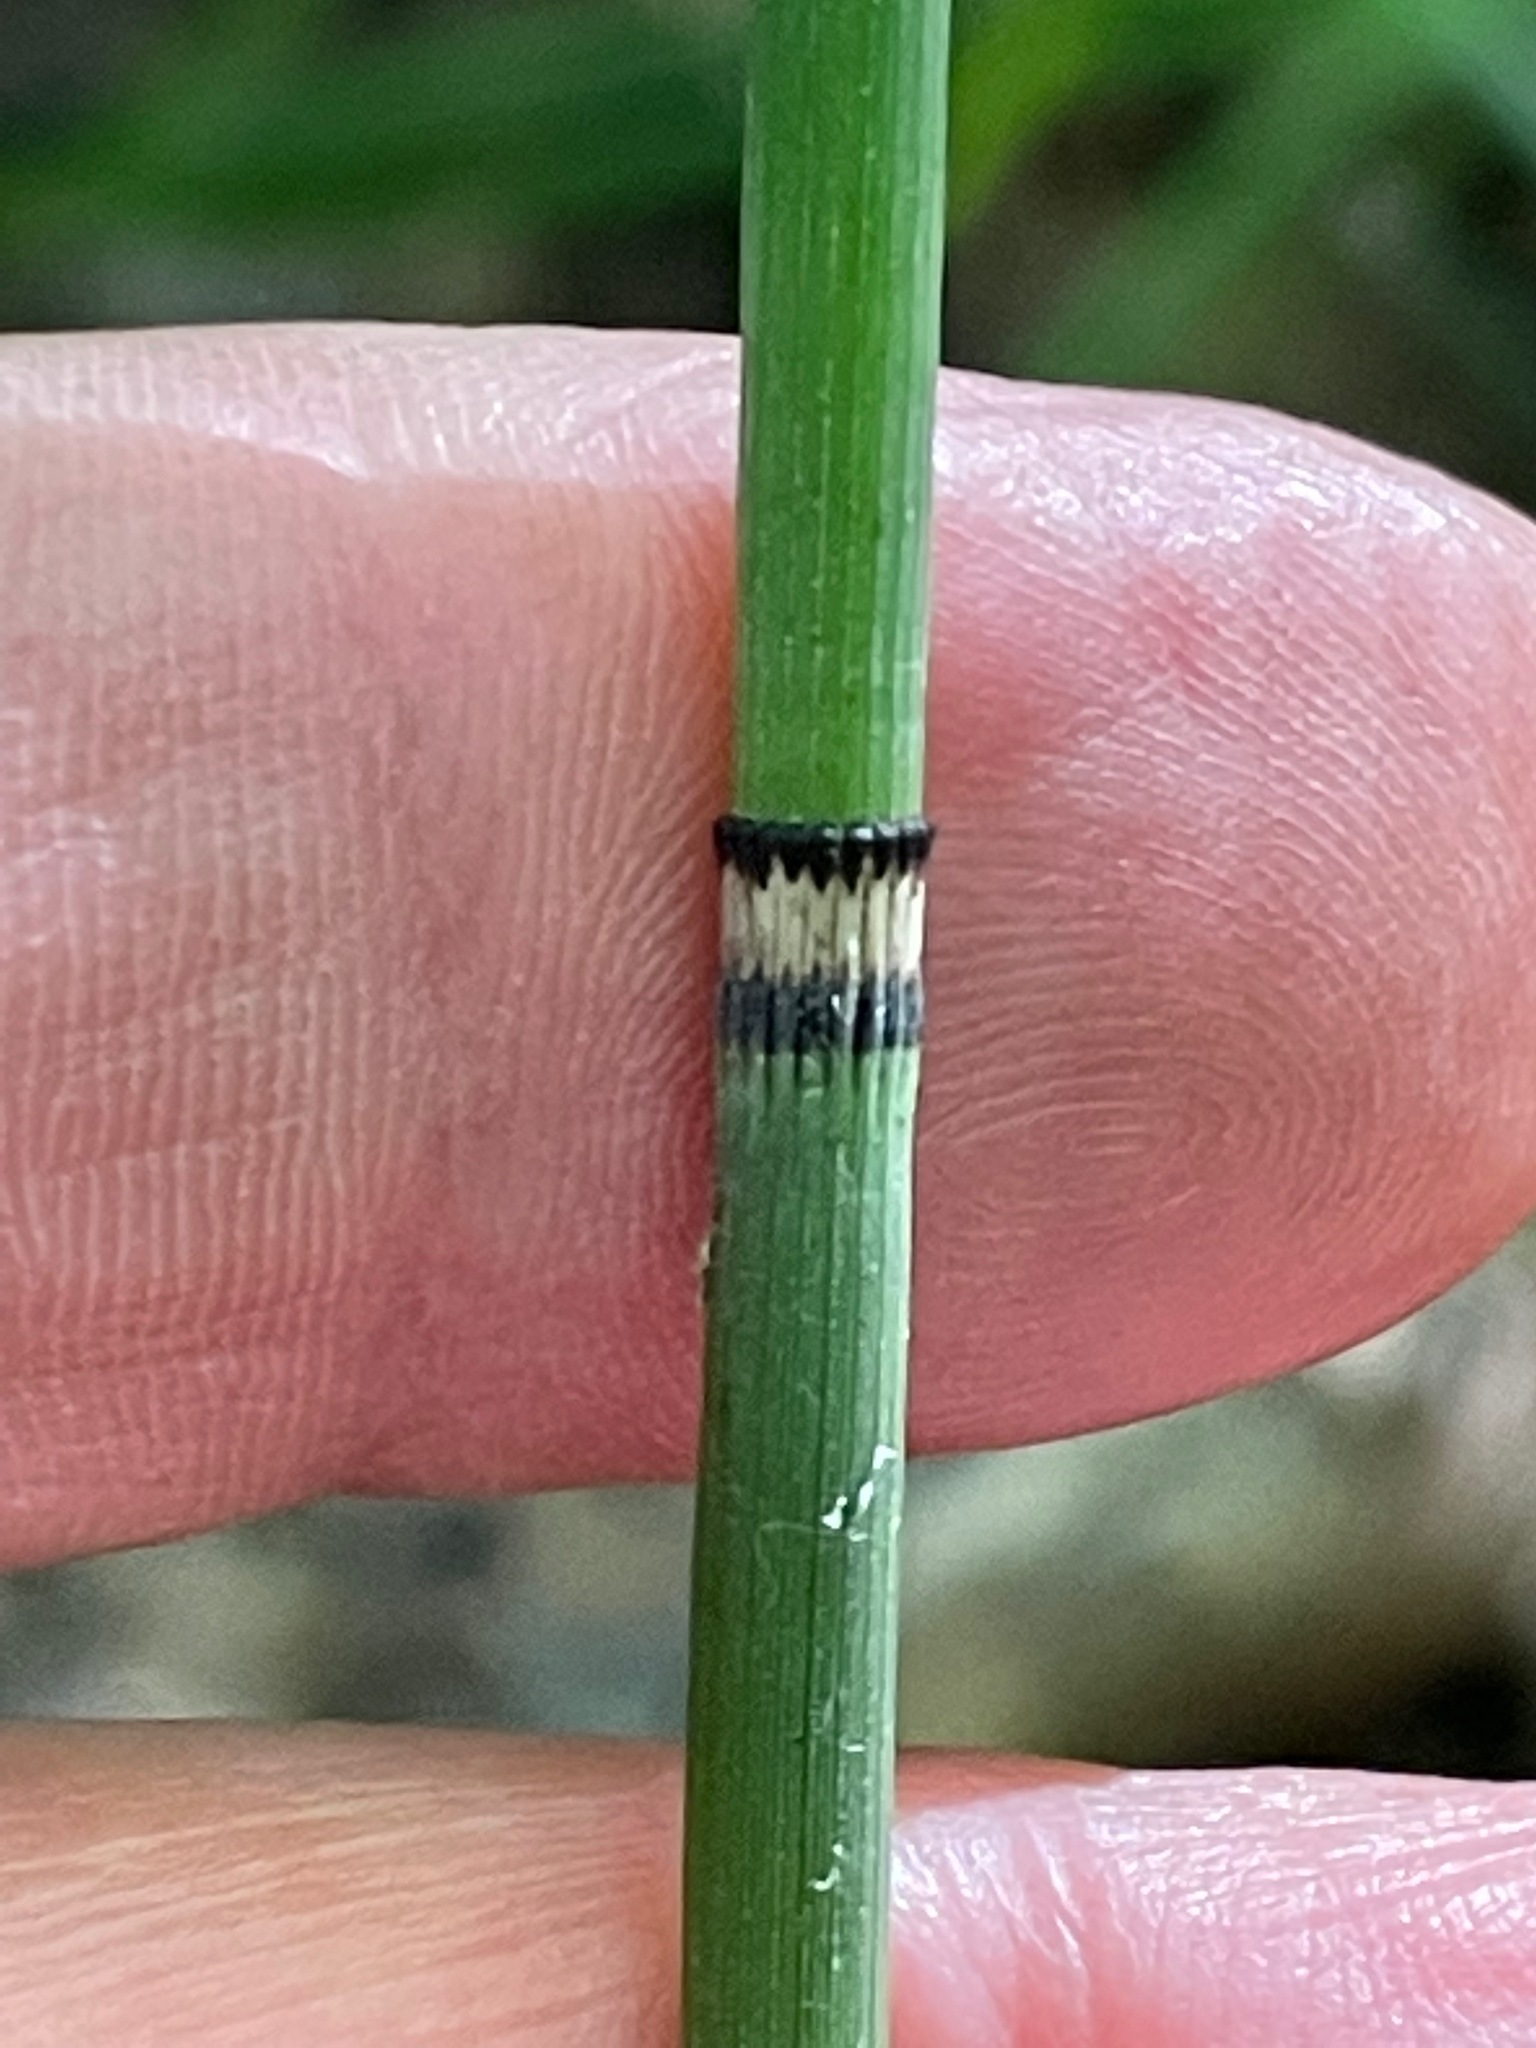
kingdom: Plantae
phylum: Tracheophyta
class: Polypodiopsida
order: Equisetales
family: Equisetaceae
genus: Equisetum
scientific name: Equisetum hyemale
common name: Rough horsetail
